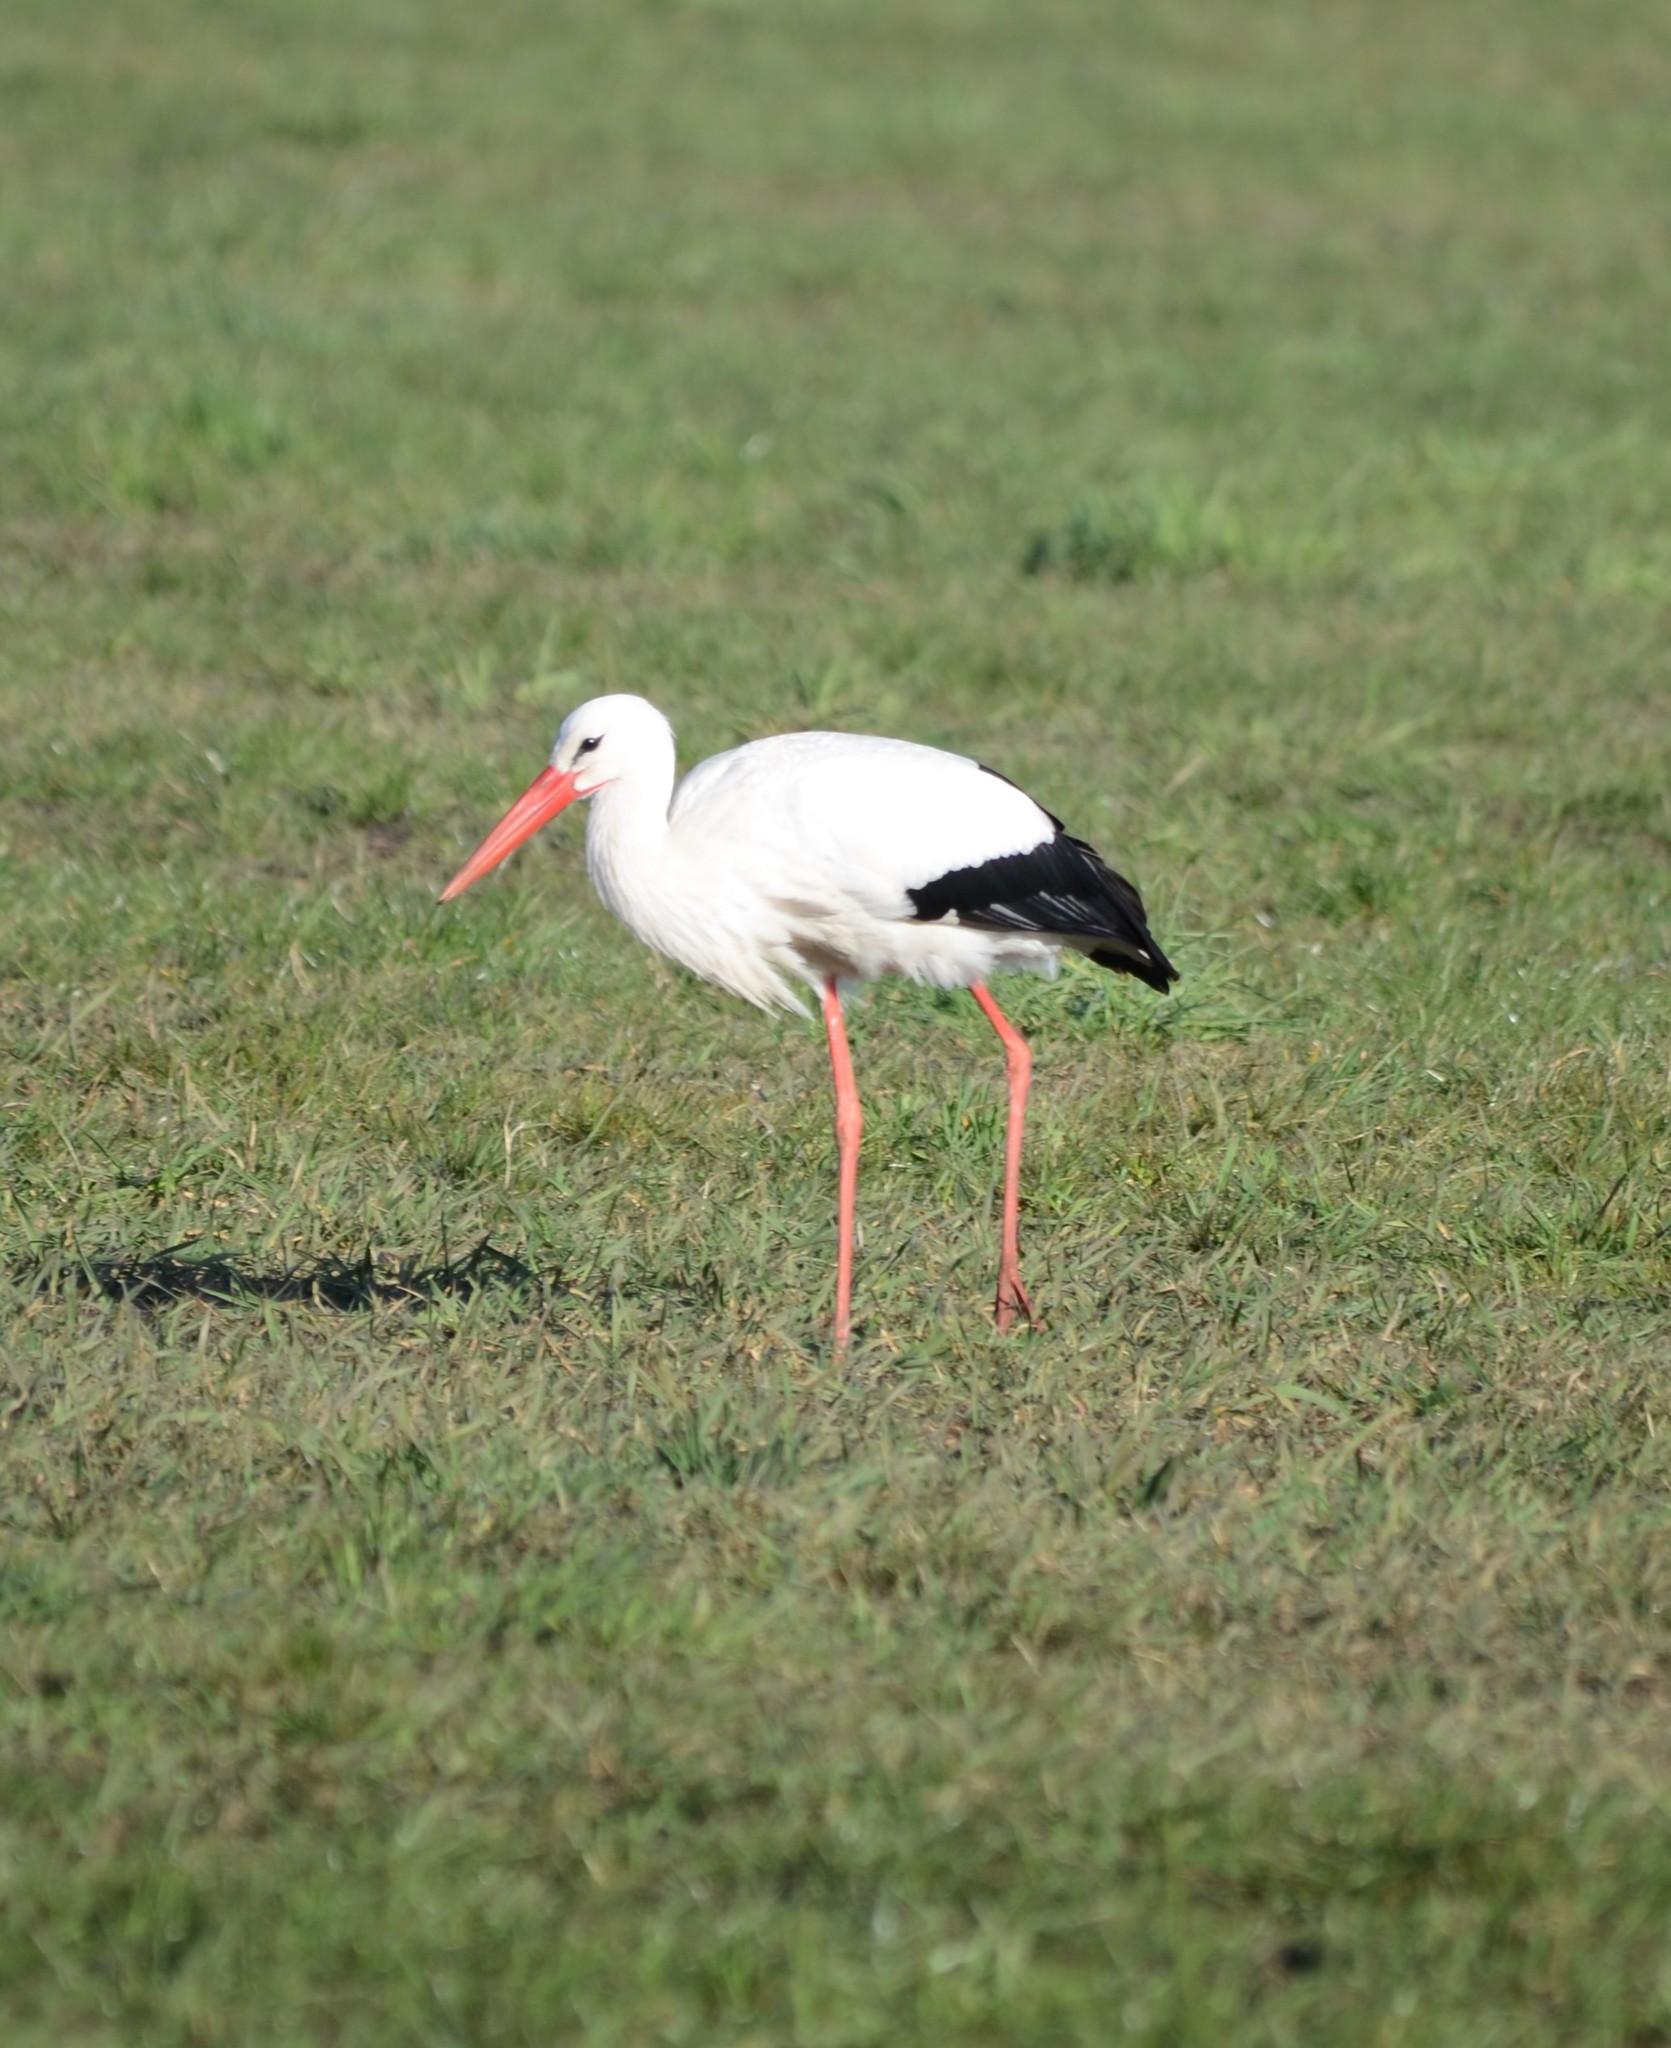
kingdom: Animalia
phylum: Chordata
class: Aves
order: Ciconiiformes
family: Ciconiidae
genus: Ciconia
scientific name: Ciconia ciconia
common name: White stork
